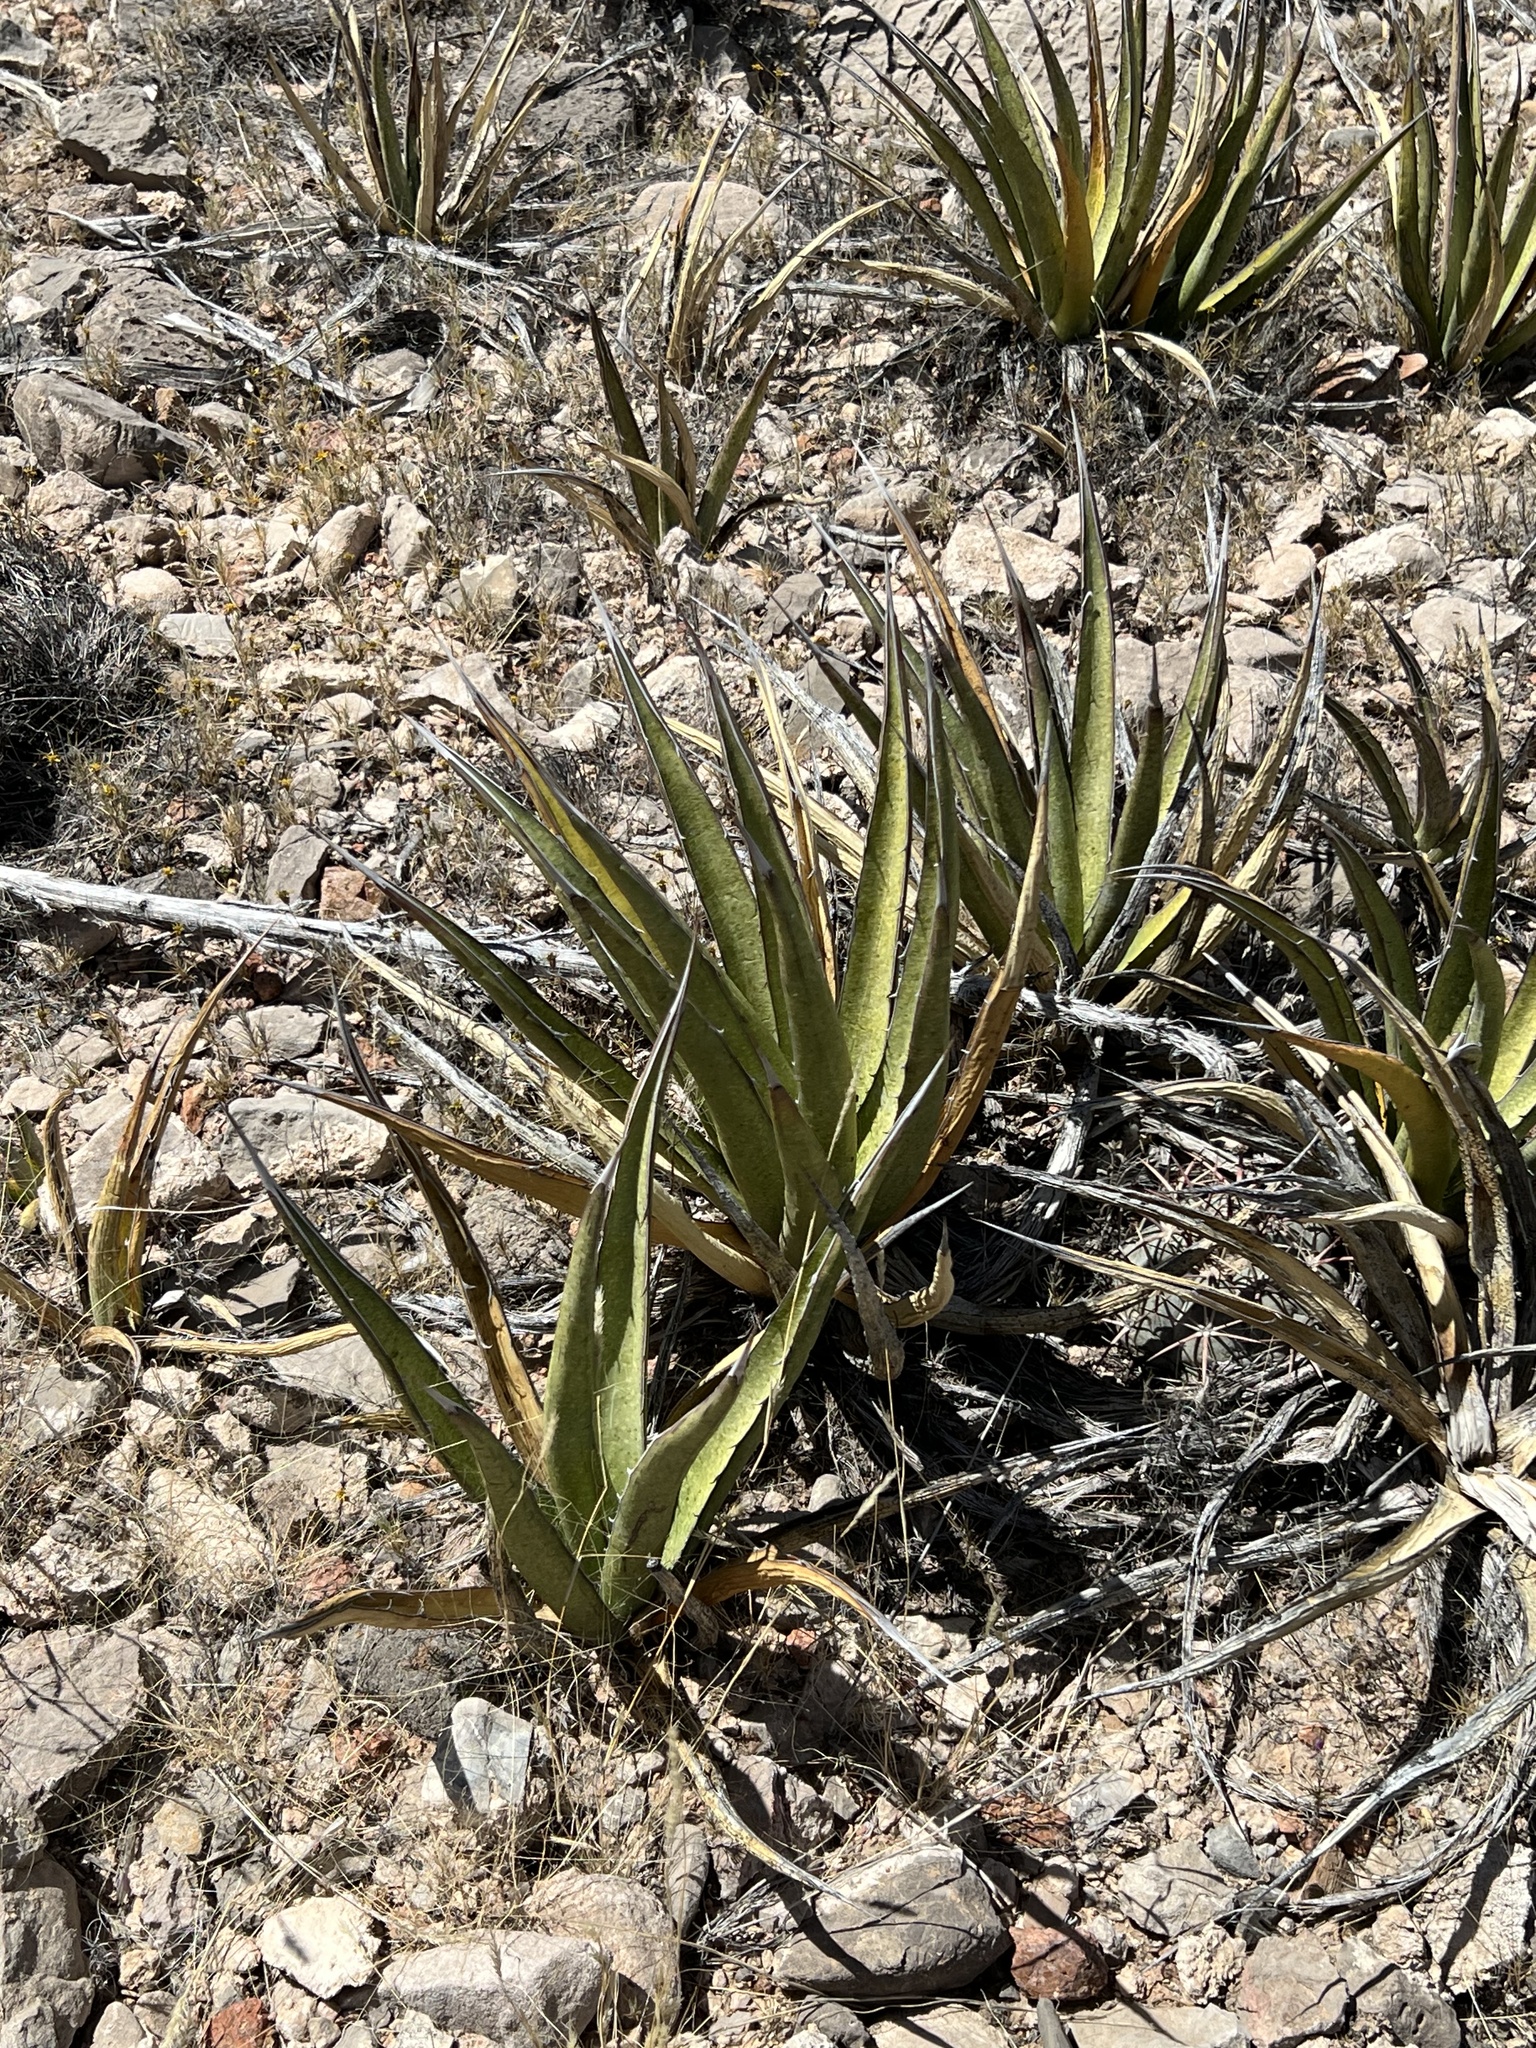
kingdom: Plantae
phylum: Tracheophyta
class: Liliopsida
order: Asparagales
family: Asparagaceae
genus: Agave
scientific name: Agave lechuguilla
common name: Lecheguilla agave
